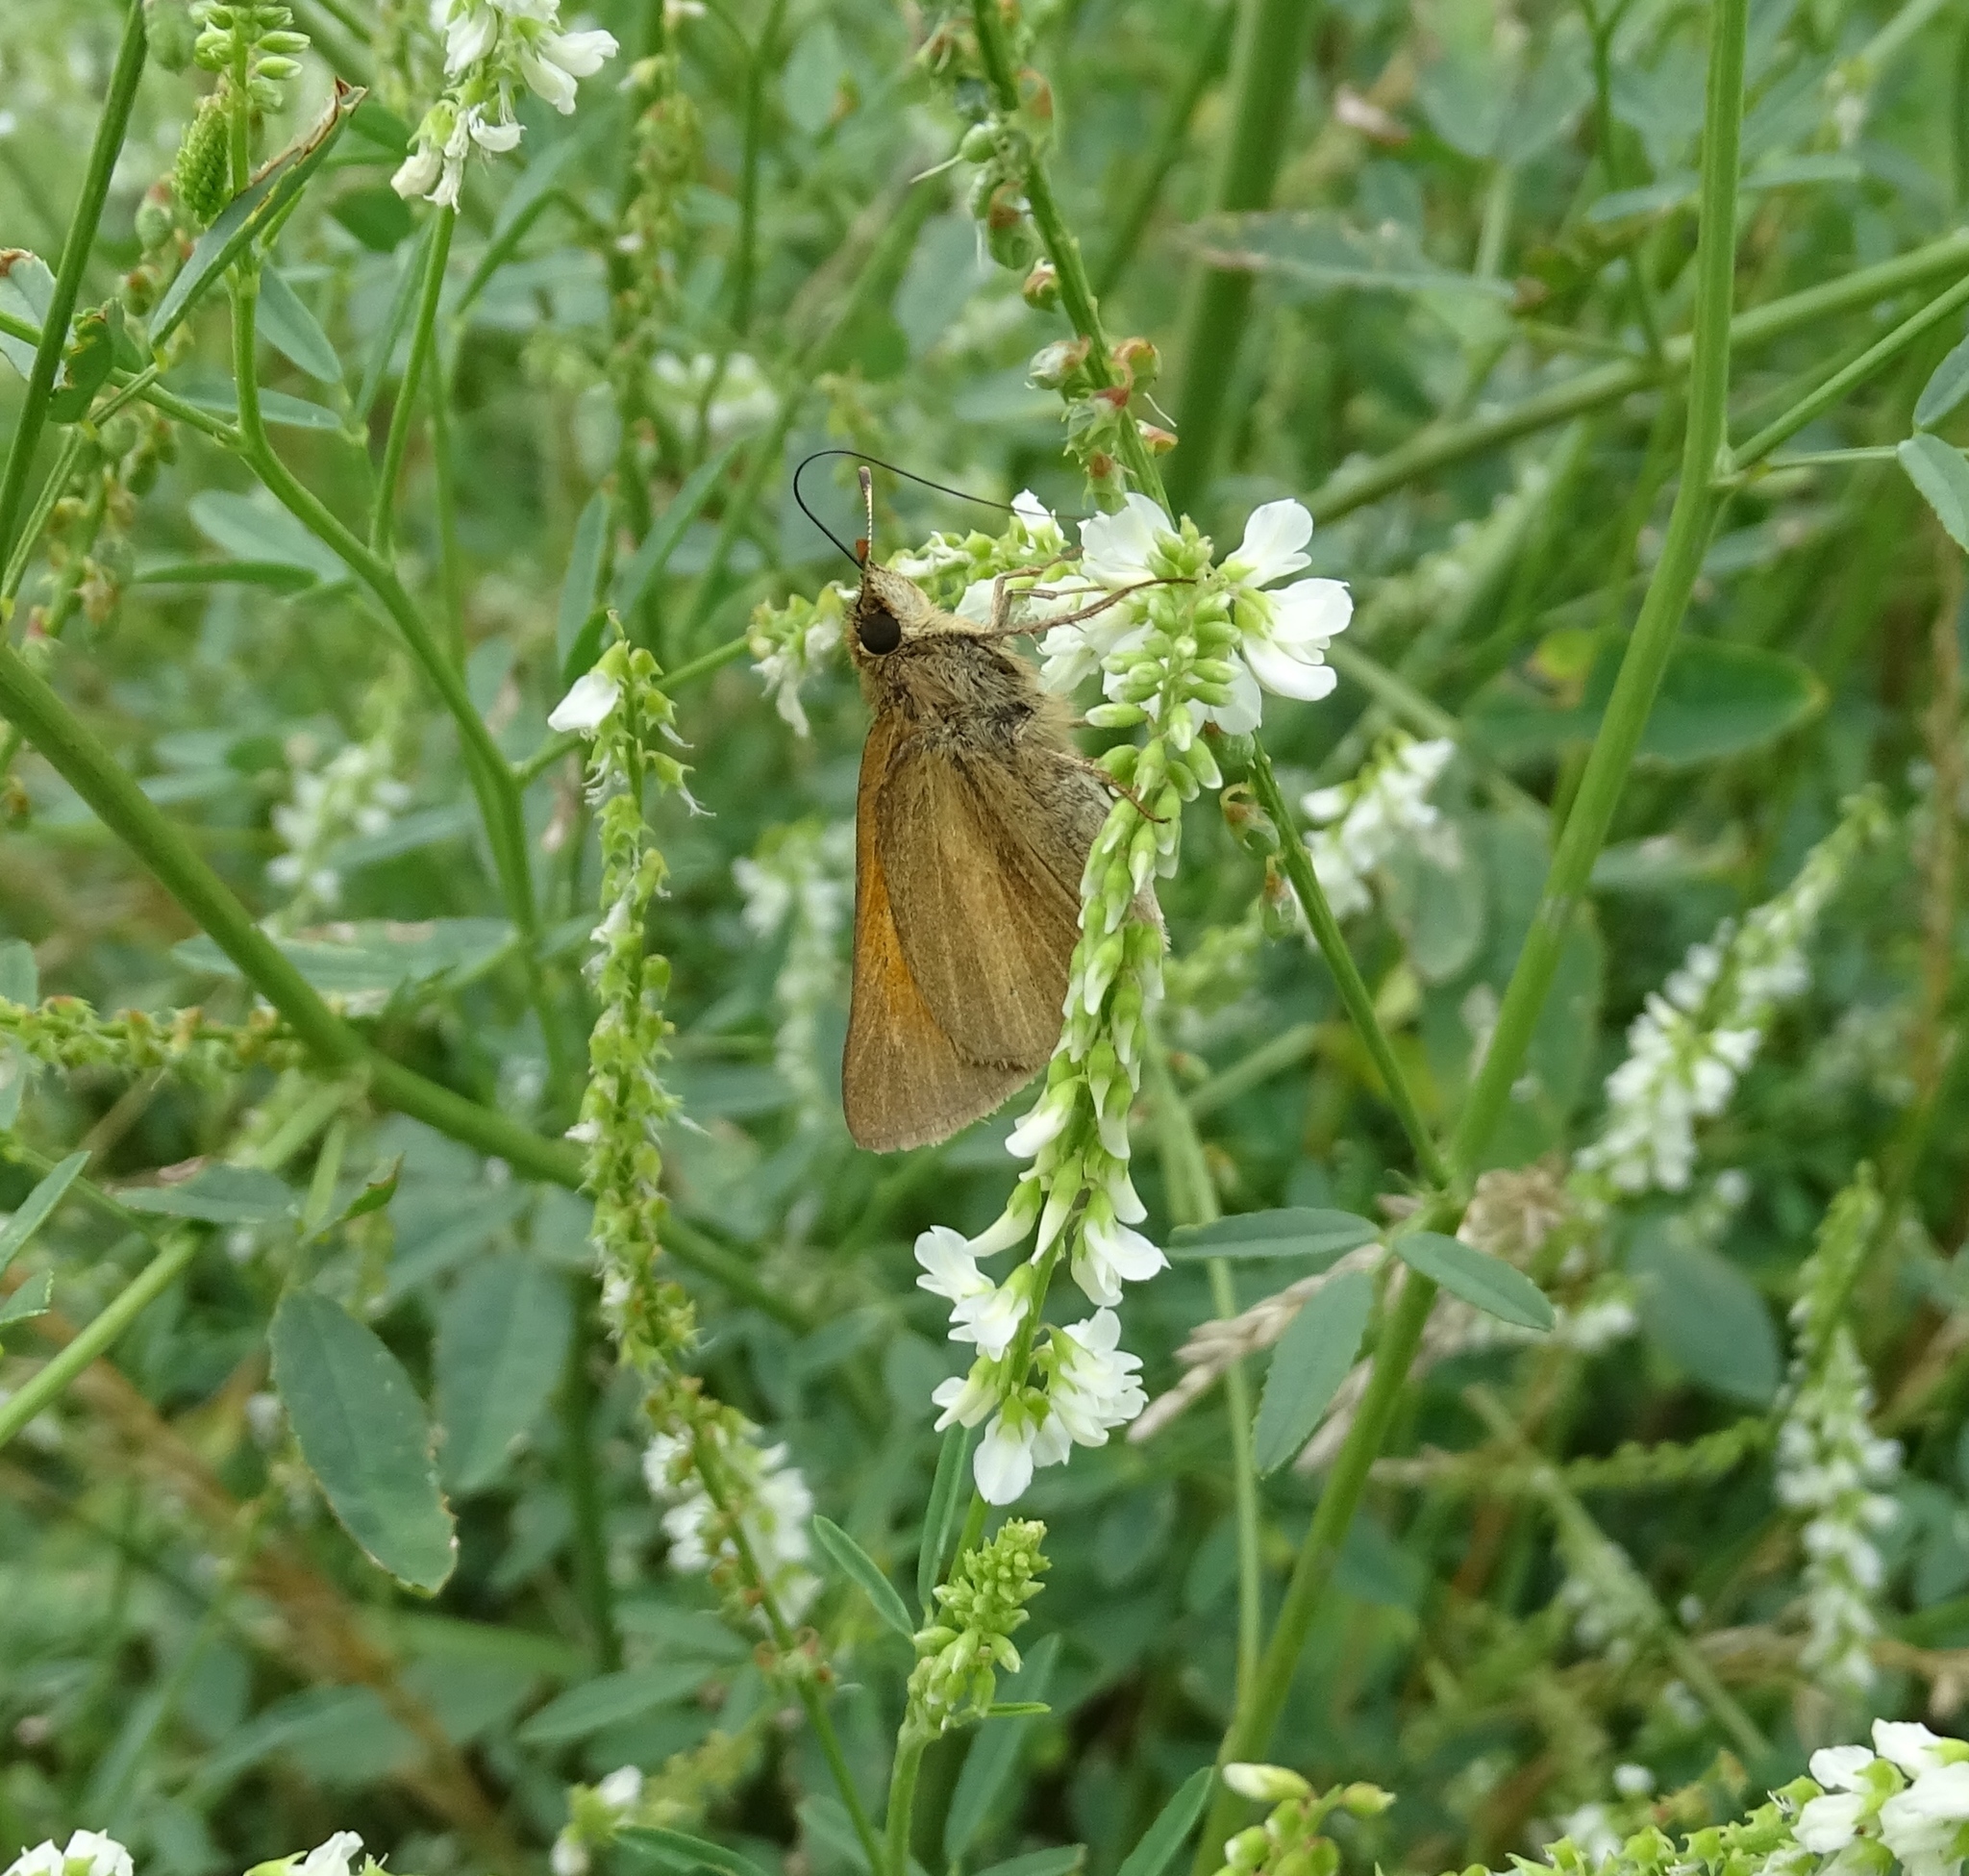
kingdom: Animalia
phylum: Arthropoda
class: Insecta
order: Lepidoptera
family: Hesperiidae
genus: Poanes
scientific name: Poanes aaroni
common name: Aaron's skipper
